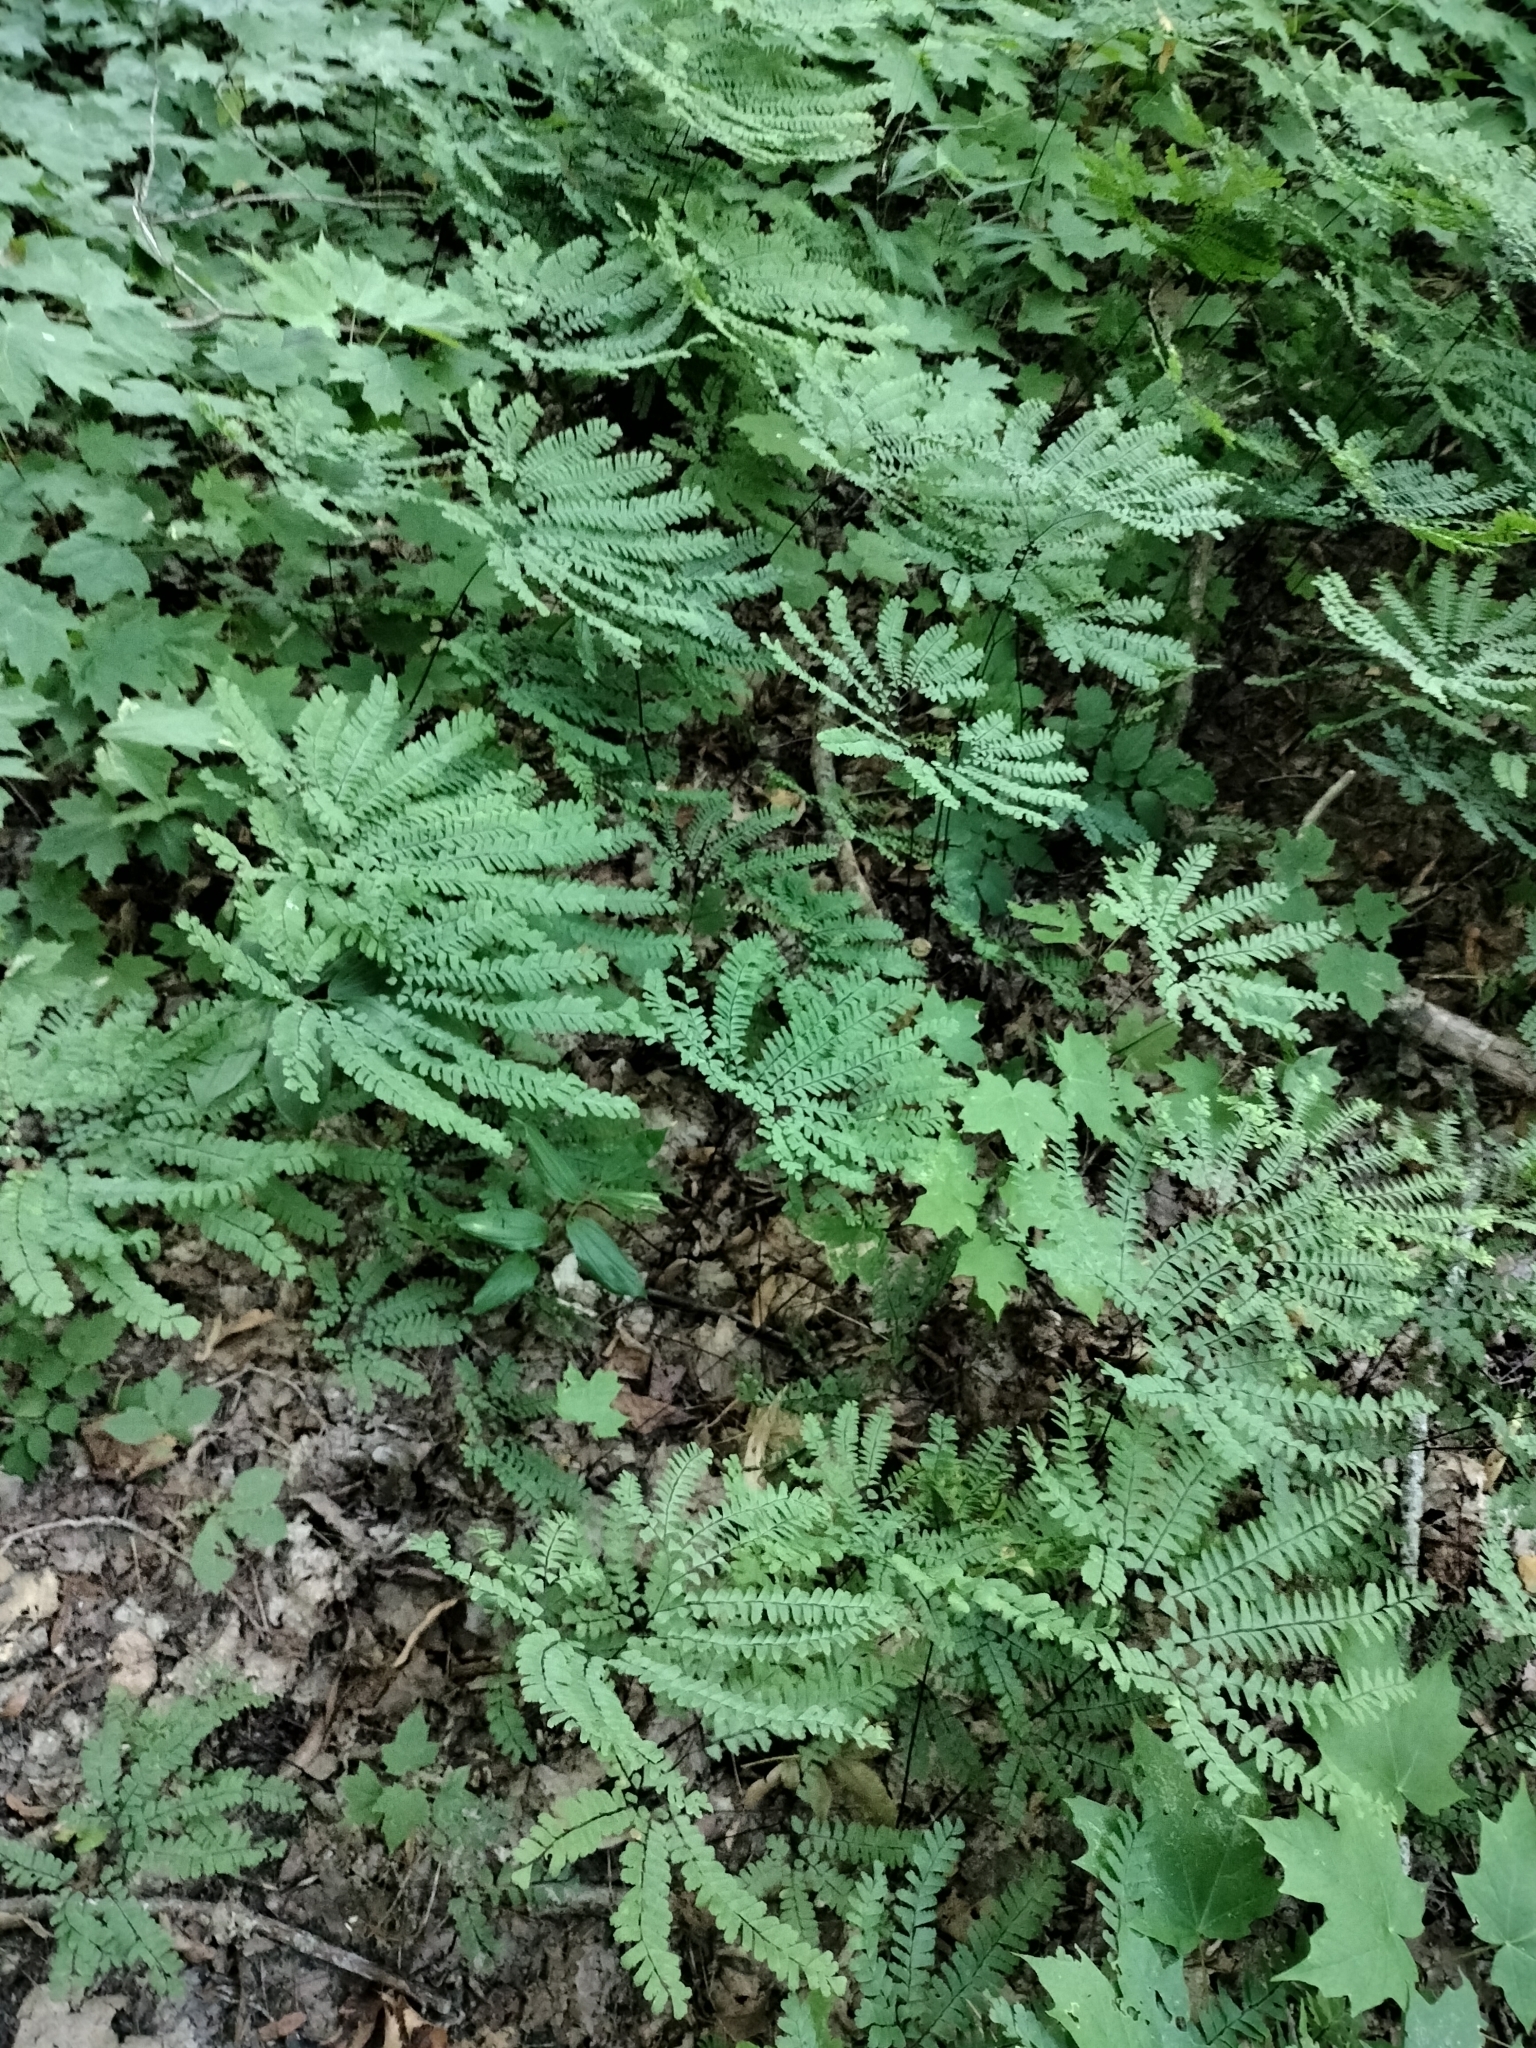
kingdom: Plantae
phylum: Tracheophyta
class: Polypodiopsida
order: Polypodiales
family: Pteridaceae
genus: Adiantum
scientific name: Adiantum pedatum
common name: Five-finger fern
